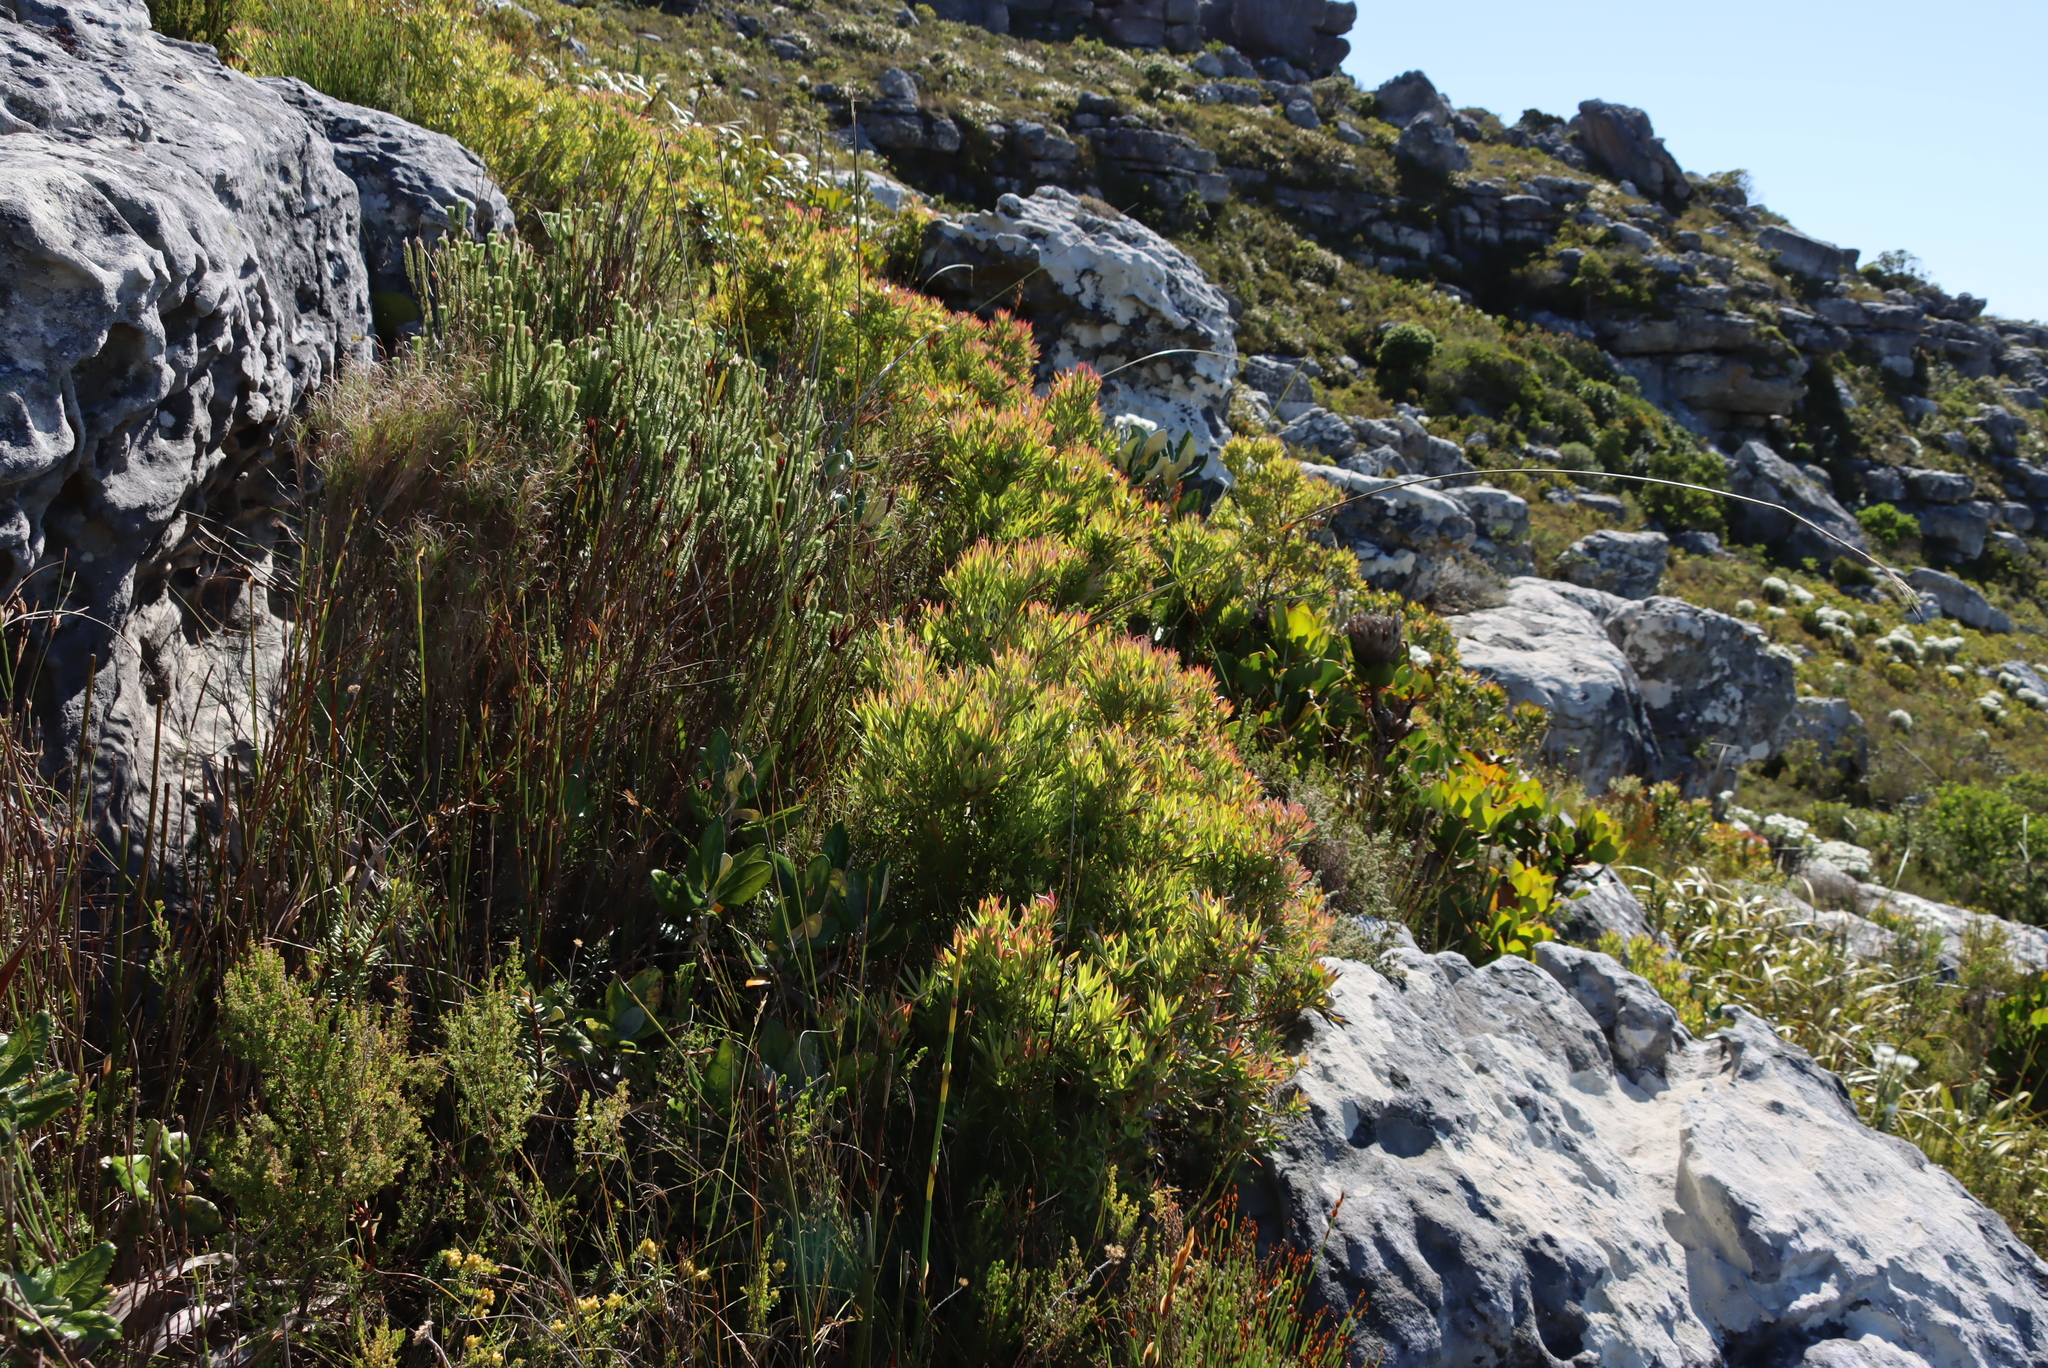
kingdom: Plantae
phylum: Tracheophyta
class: Magnoliopsida
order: Proteales
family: Proteaceae
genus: Leucadendron
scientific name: Leucadendron xanthoconus
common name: Sickle-leaf conebush
